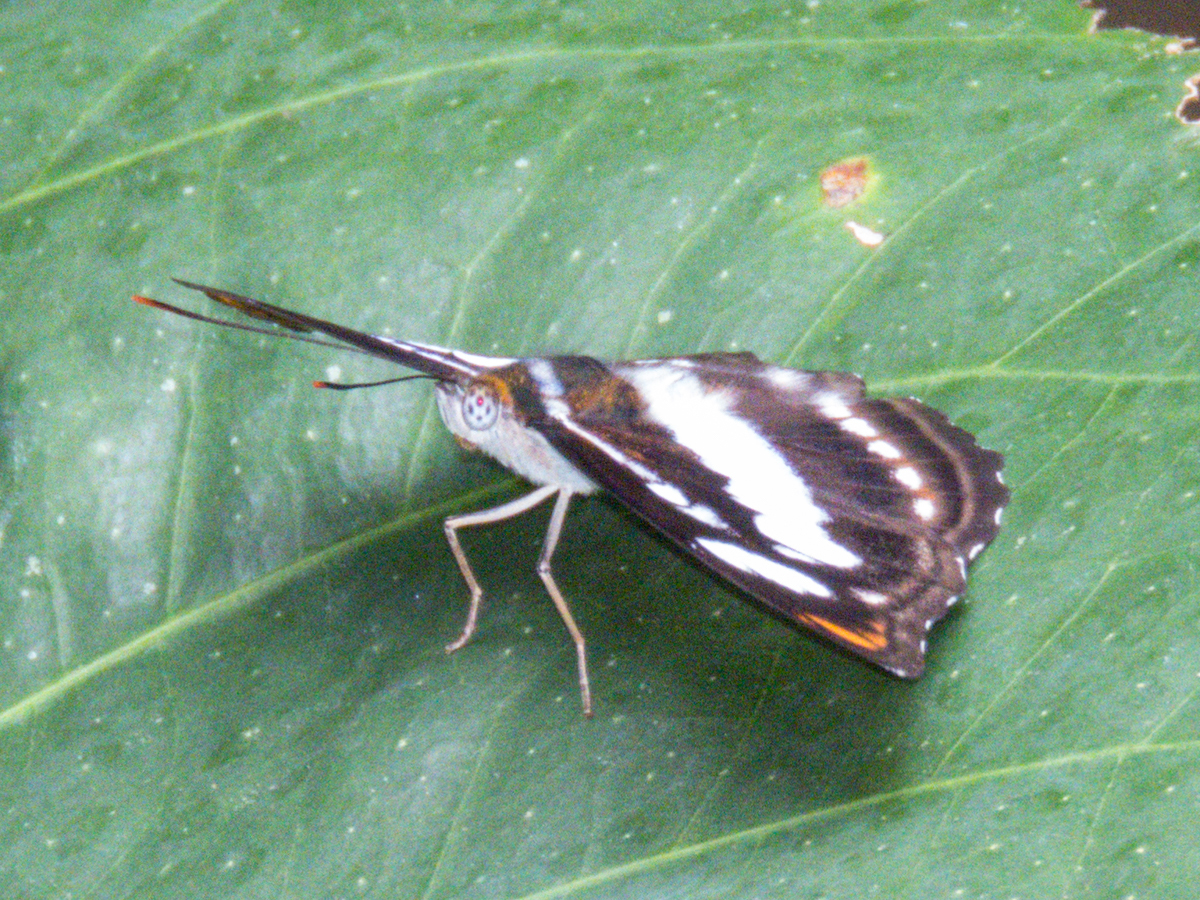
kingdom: Animalia
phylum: Arthropoda
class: Insecta
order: Lepidoptera
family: Nymphalidae
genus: Parathyma
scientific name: Parathyma nefte
